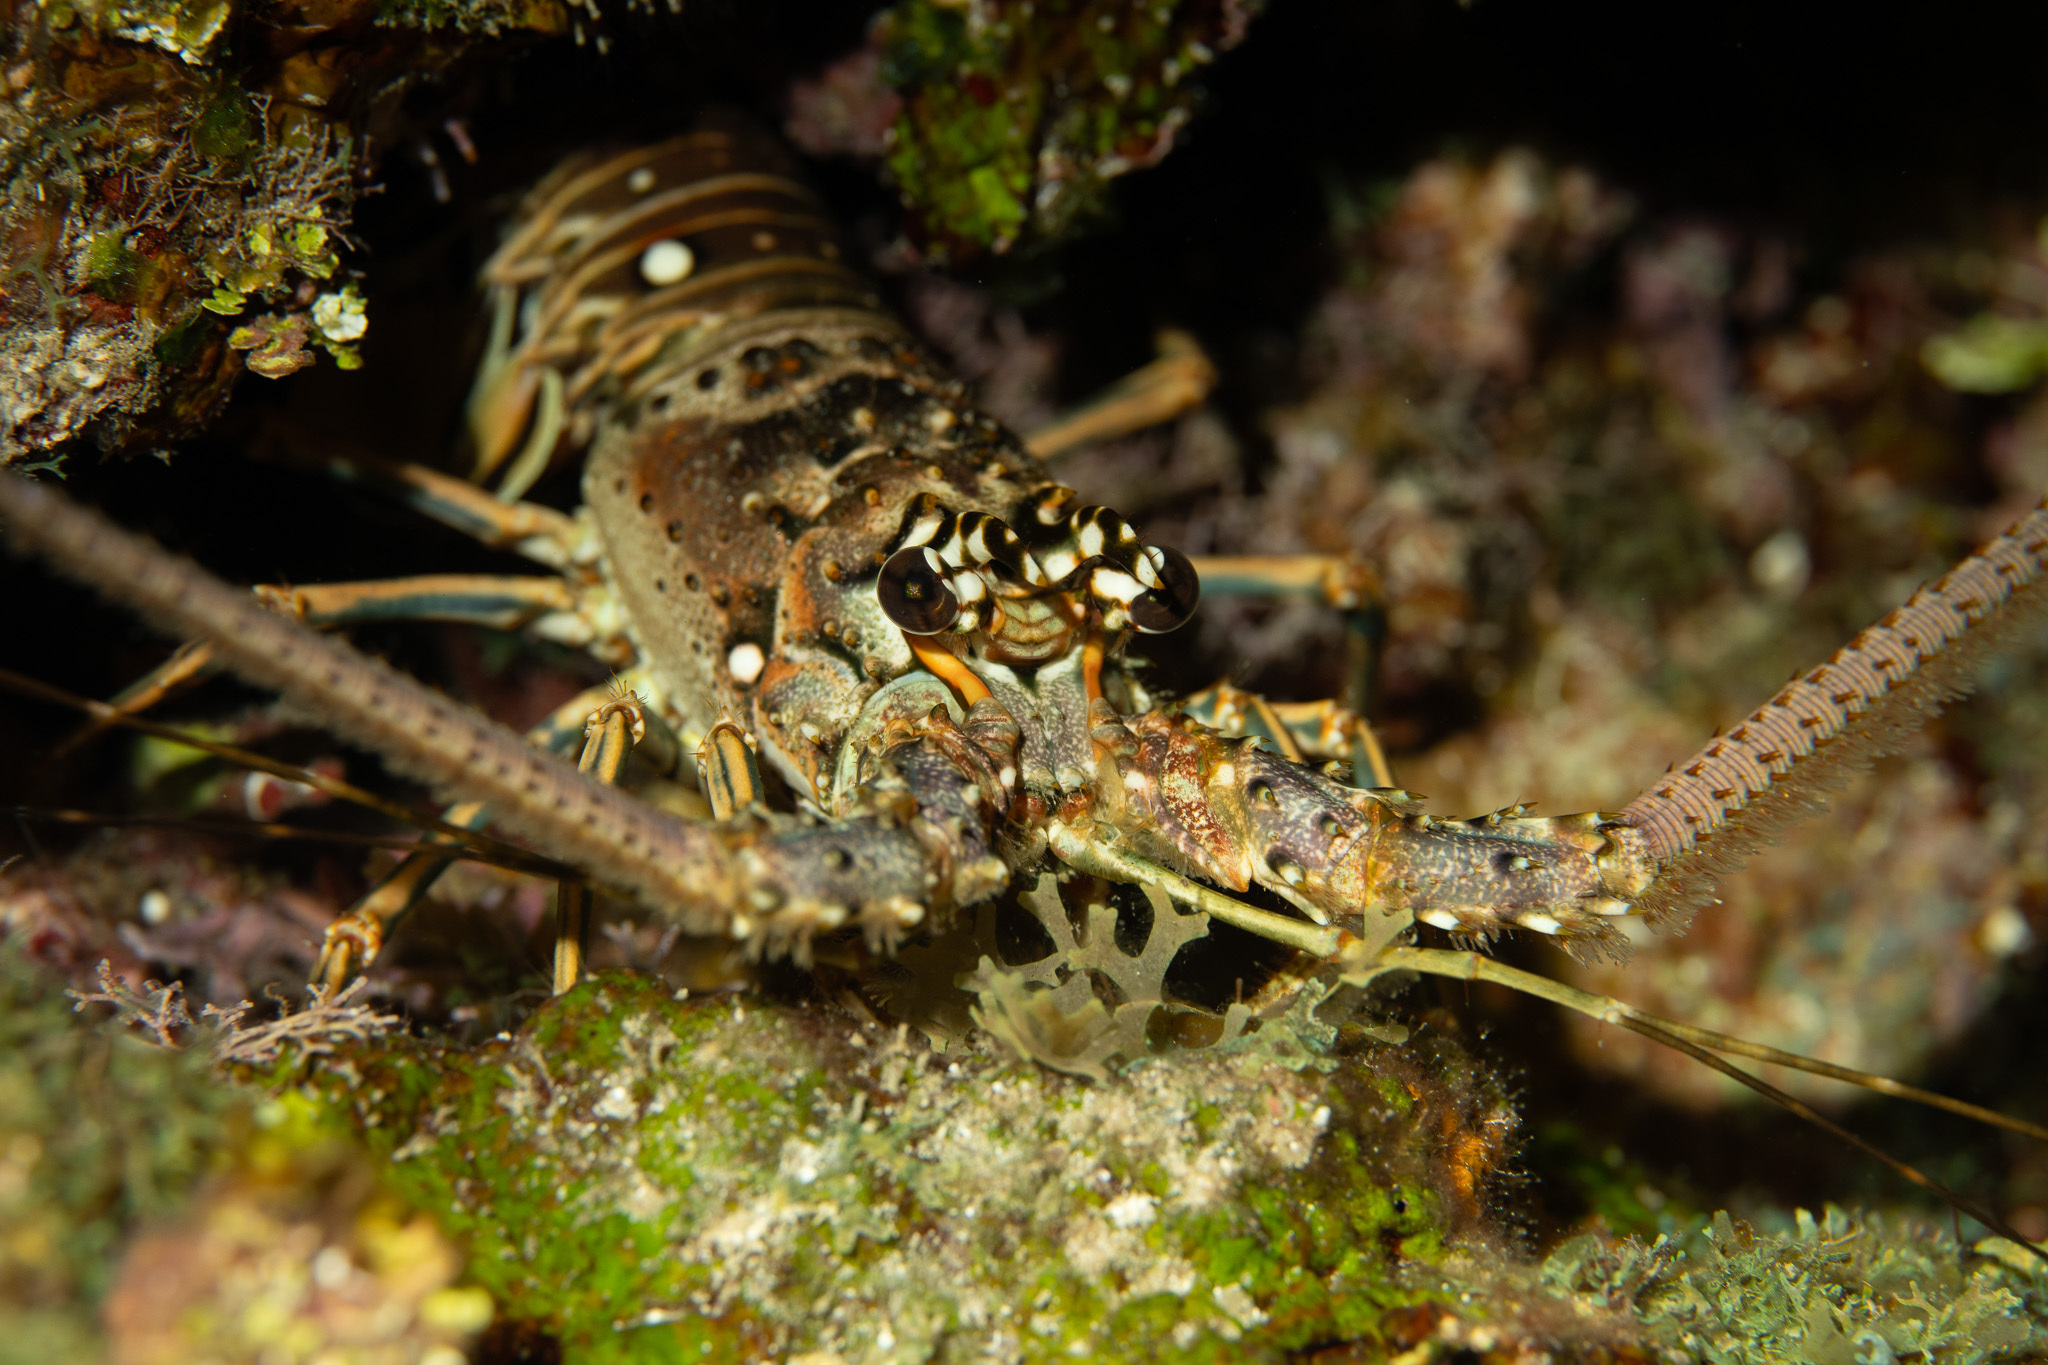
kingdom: Animalia
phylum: Arthropoda
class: Malacostraca
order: Decapoda
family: Palinuridae
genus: Panulirus
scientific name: Panulirus argus
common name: Caribbean spiny lobster
